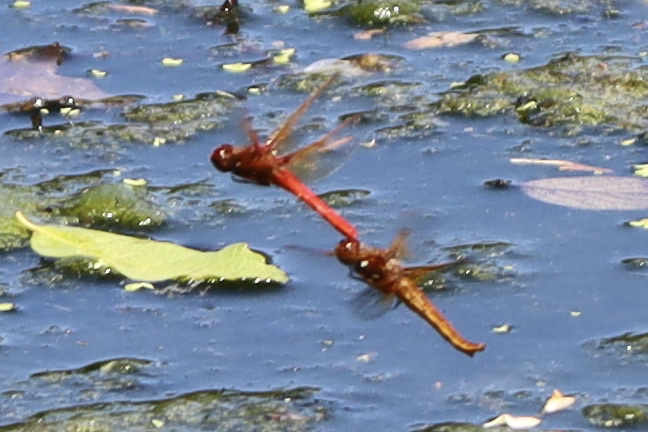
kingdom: Animalia
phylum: Arthropoda
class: Insecta
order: Odonata
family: Libellulidae
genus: Sympetrum
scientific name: Sympetrum illotum
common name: Cardinal meadowhawk
